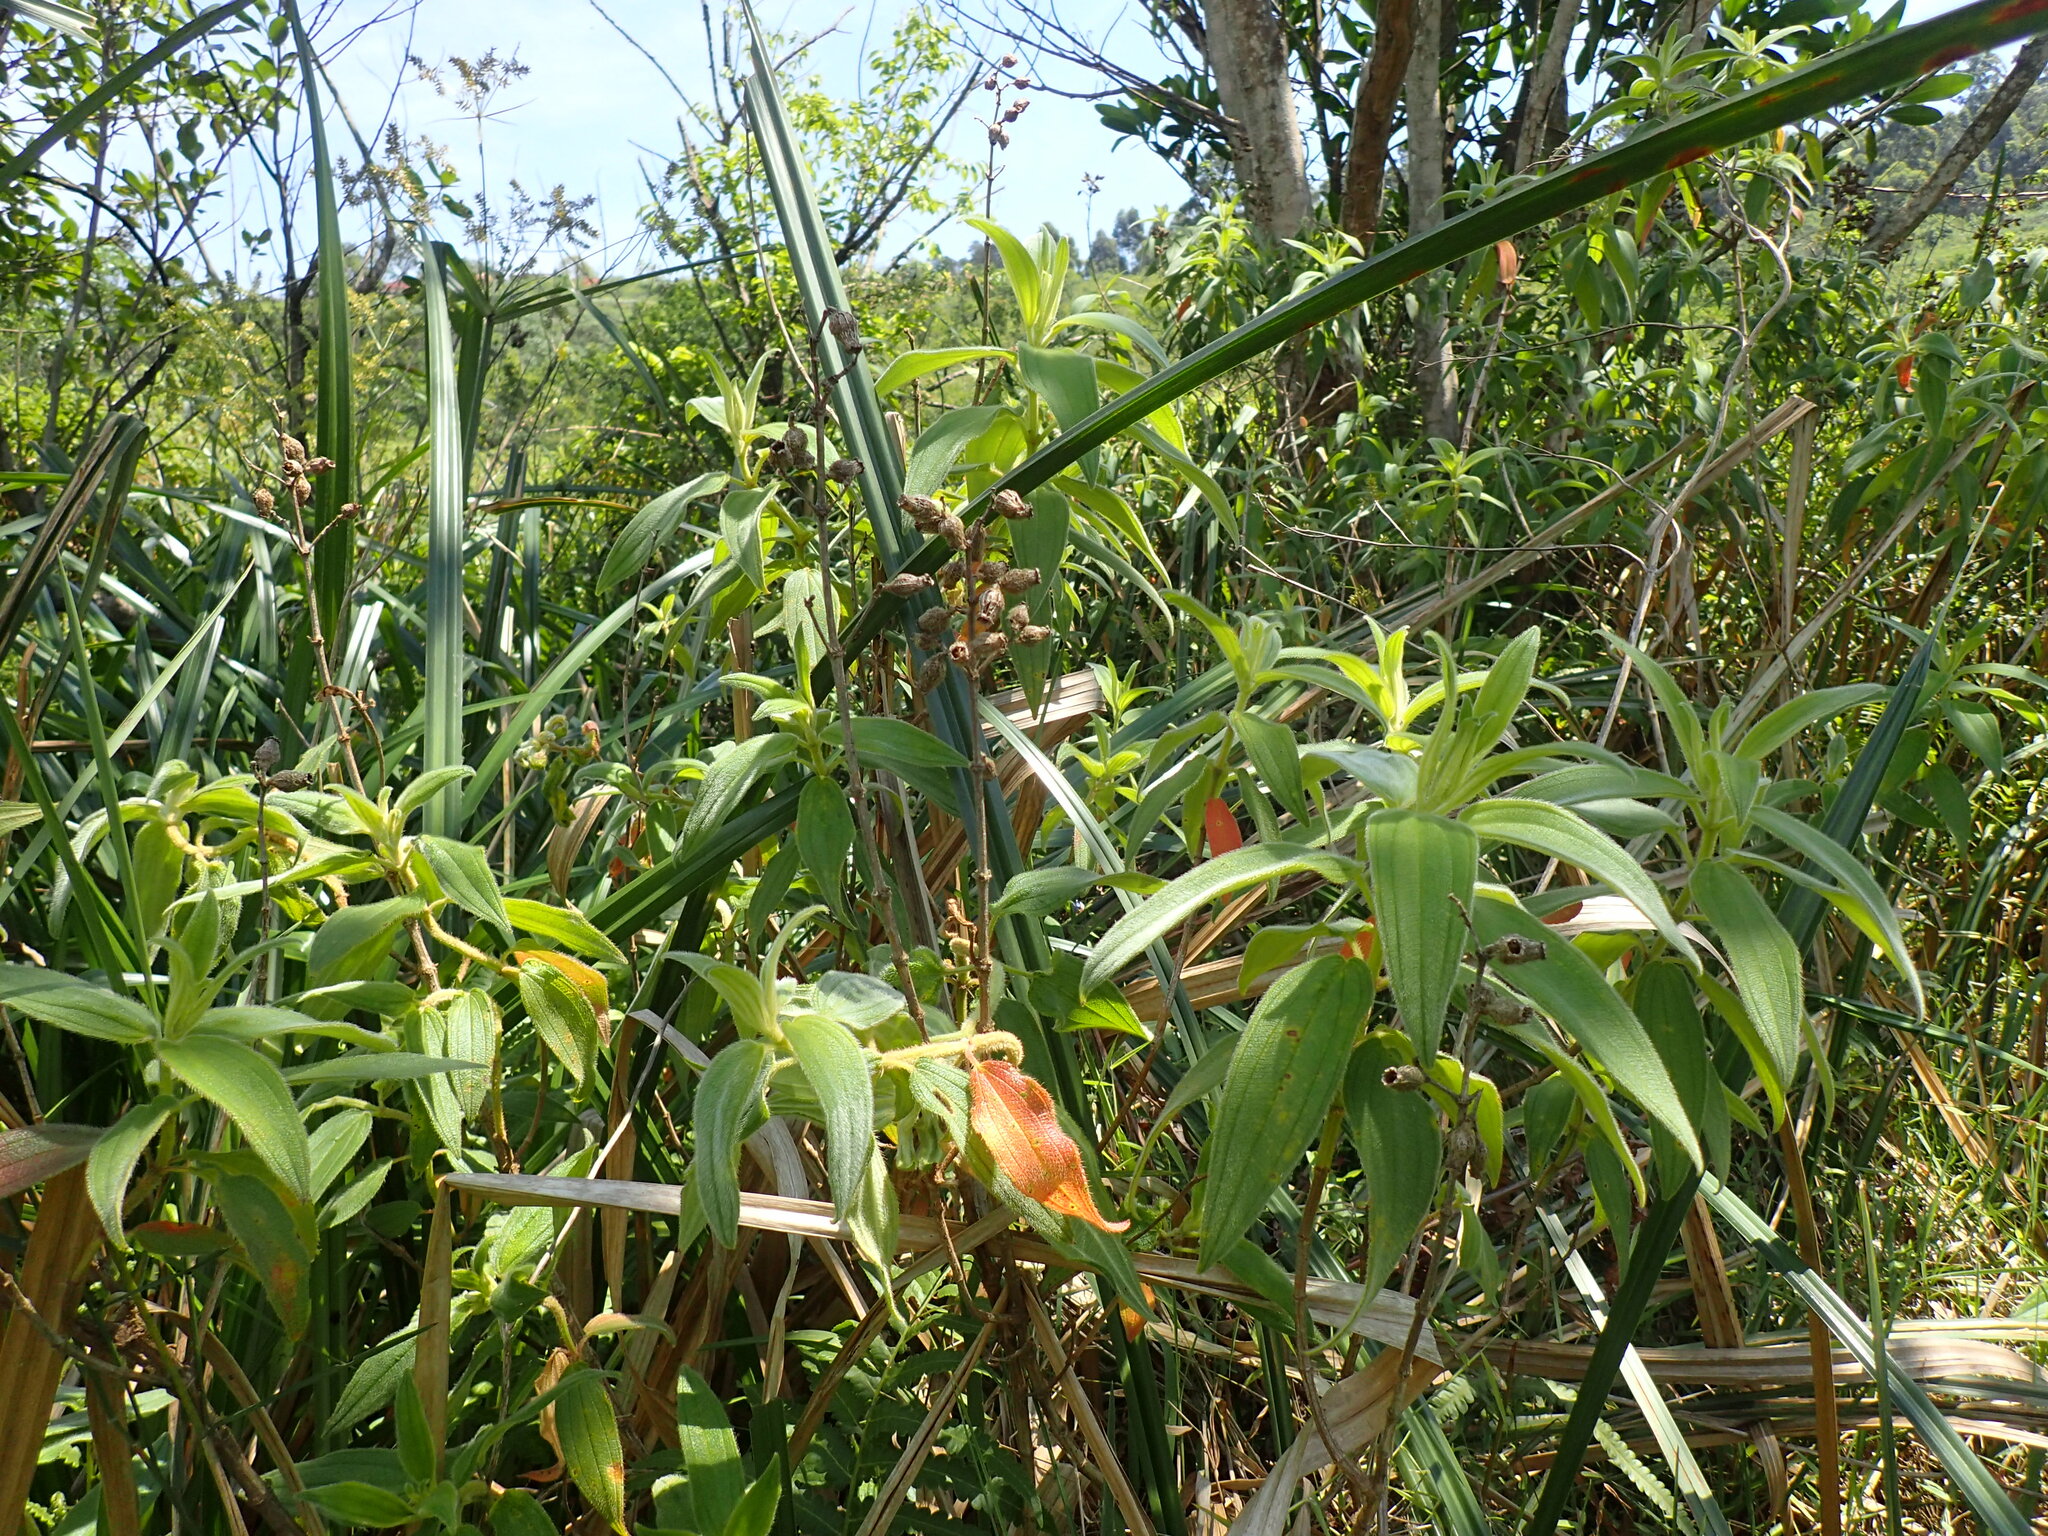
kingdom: Plantae
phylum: Tracheophyta
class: Magnoliopsida
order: Myrtales
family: Melastomataceae
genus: Argyrella
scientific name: Argyrella canescens
